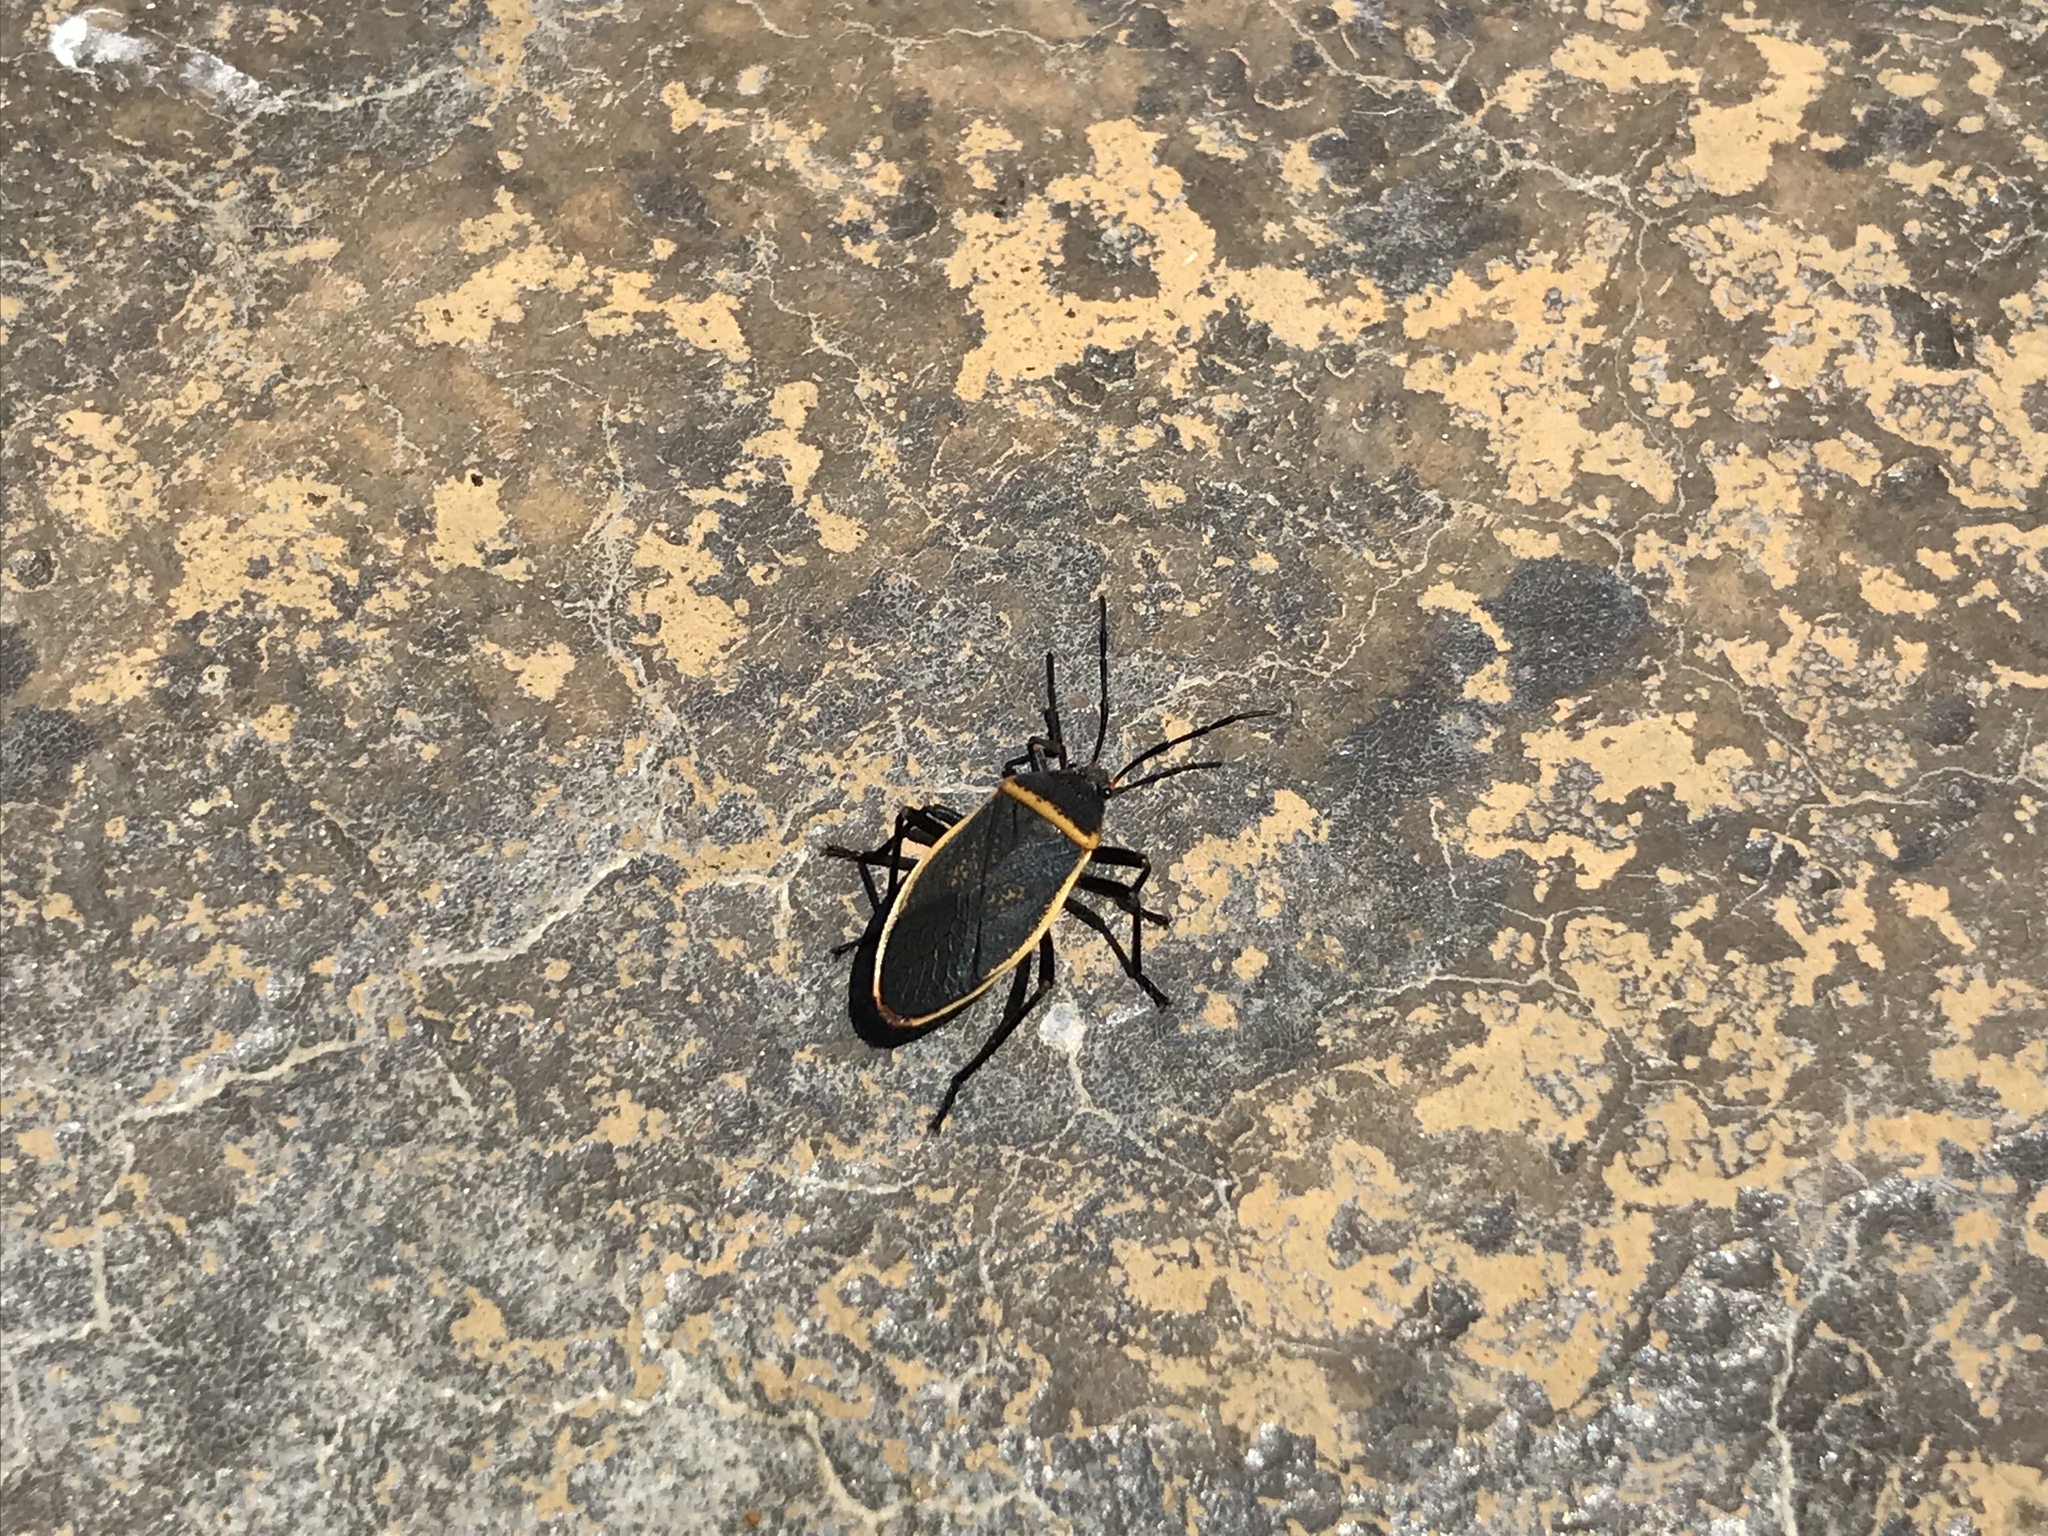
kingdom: Animalia
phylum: Arthropoda
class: Insecta
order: Hemiptera
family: Largidae
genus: Largus
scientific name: Largus californicus
